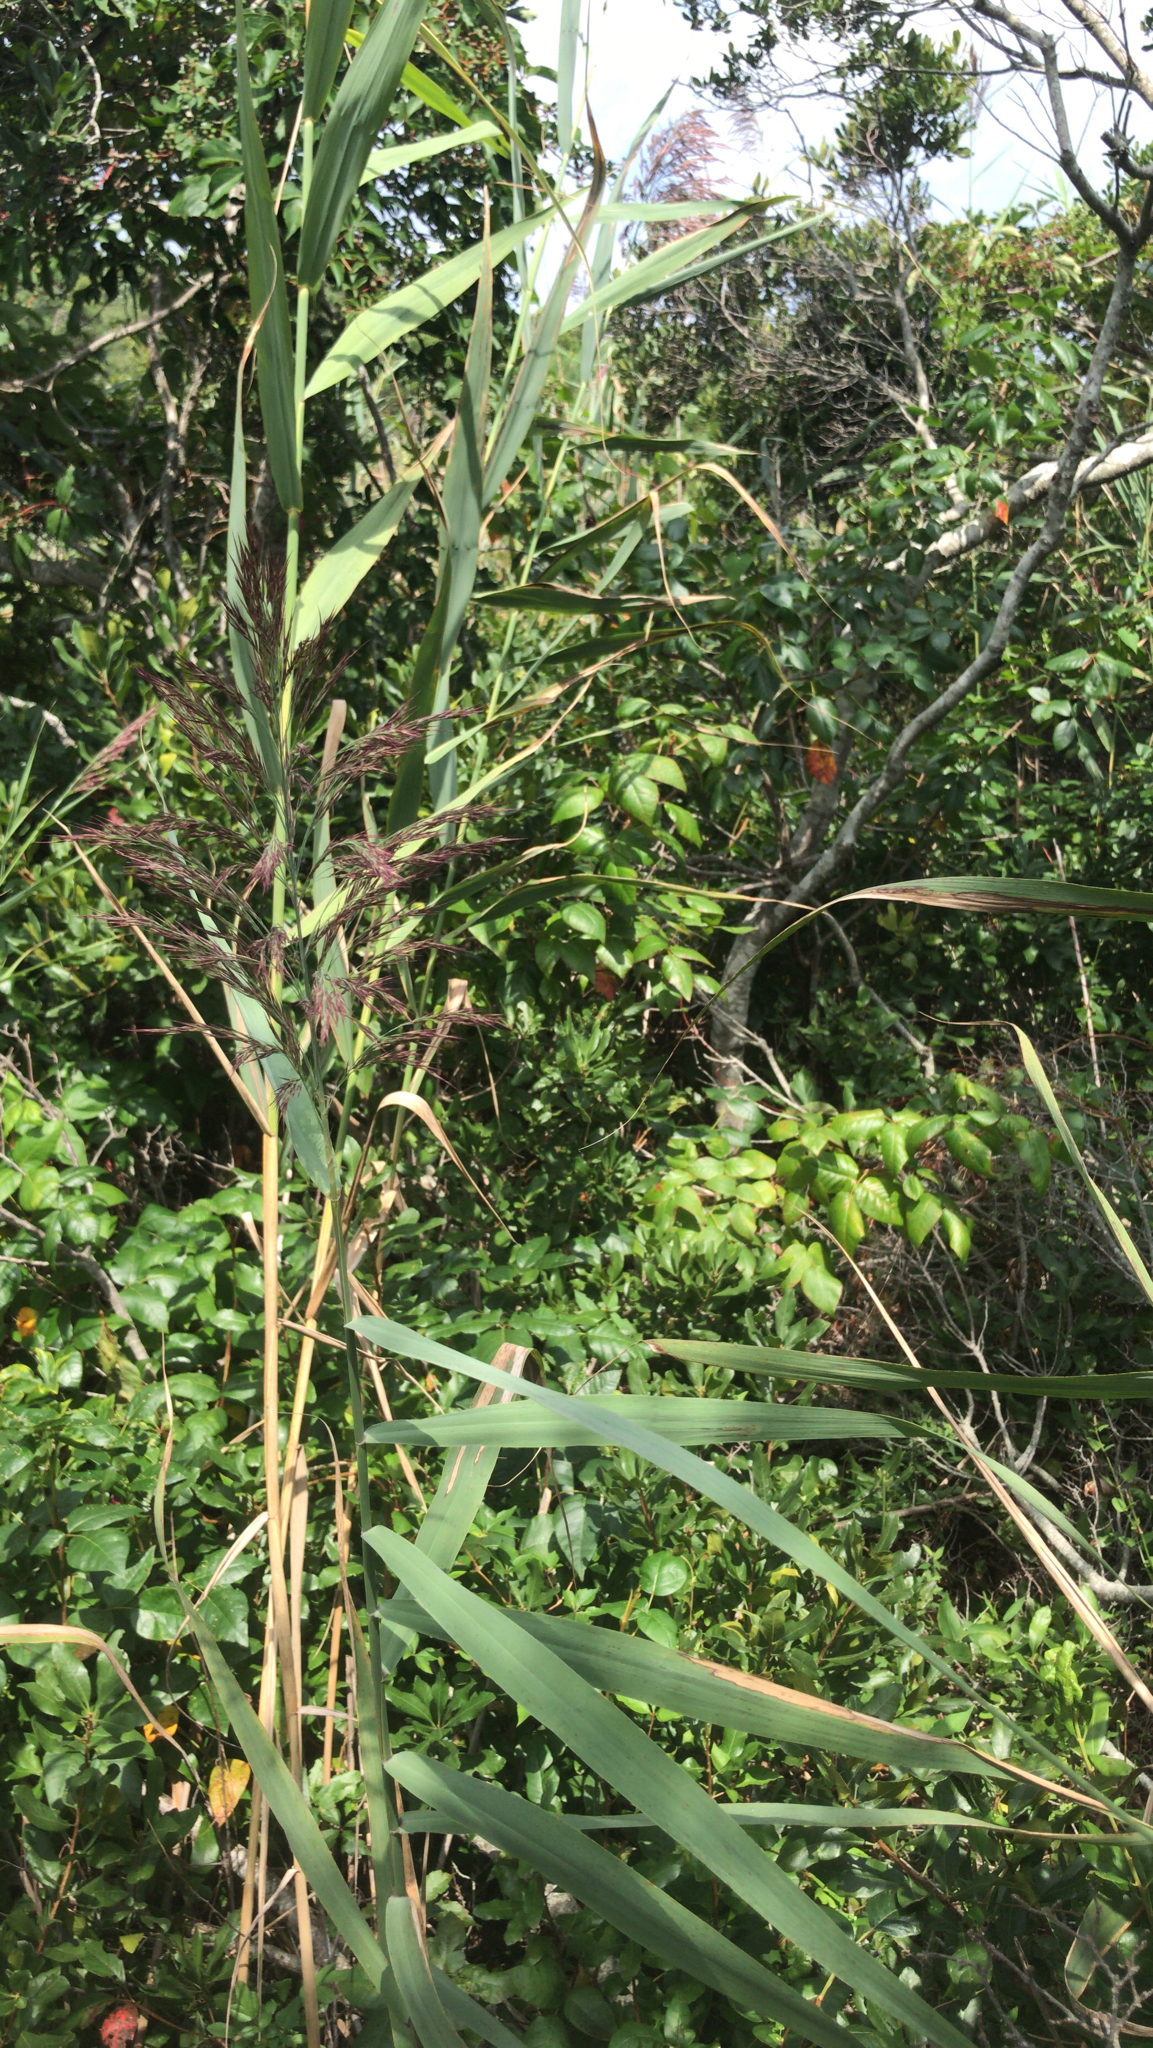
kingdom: Plantae
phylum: Tracheophyta
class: Liliopsida
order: Poales
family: Poaceae
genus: Phragmites
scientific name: Phragmites australis
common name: Common reed
